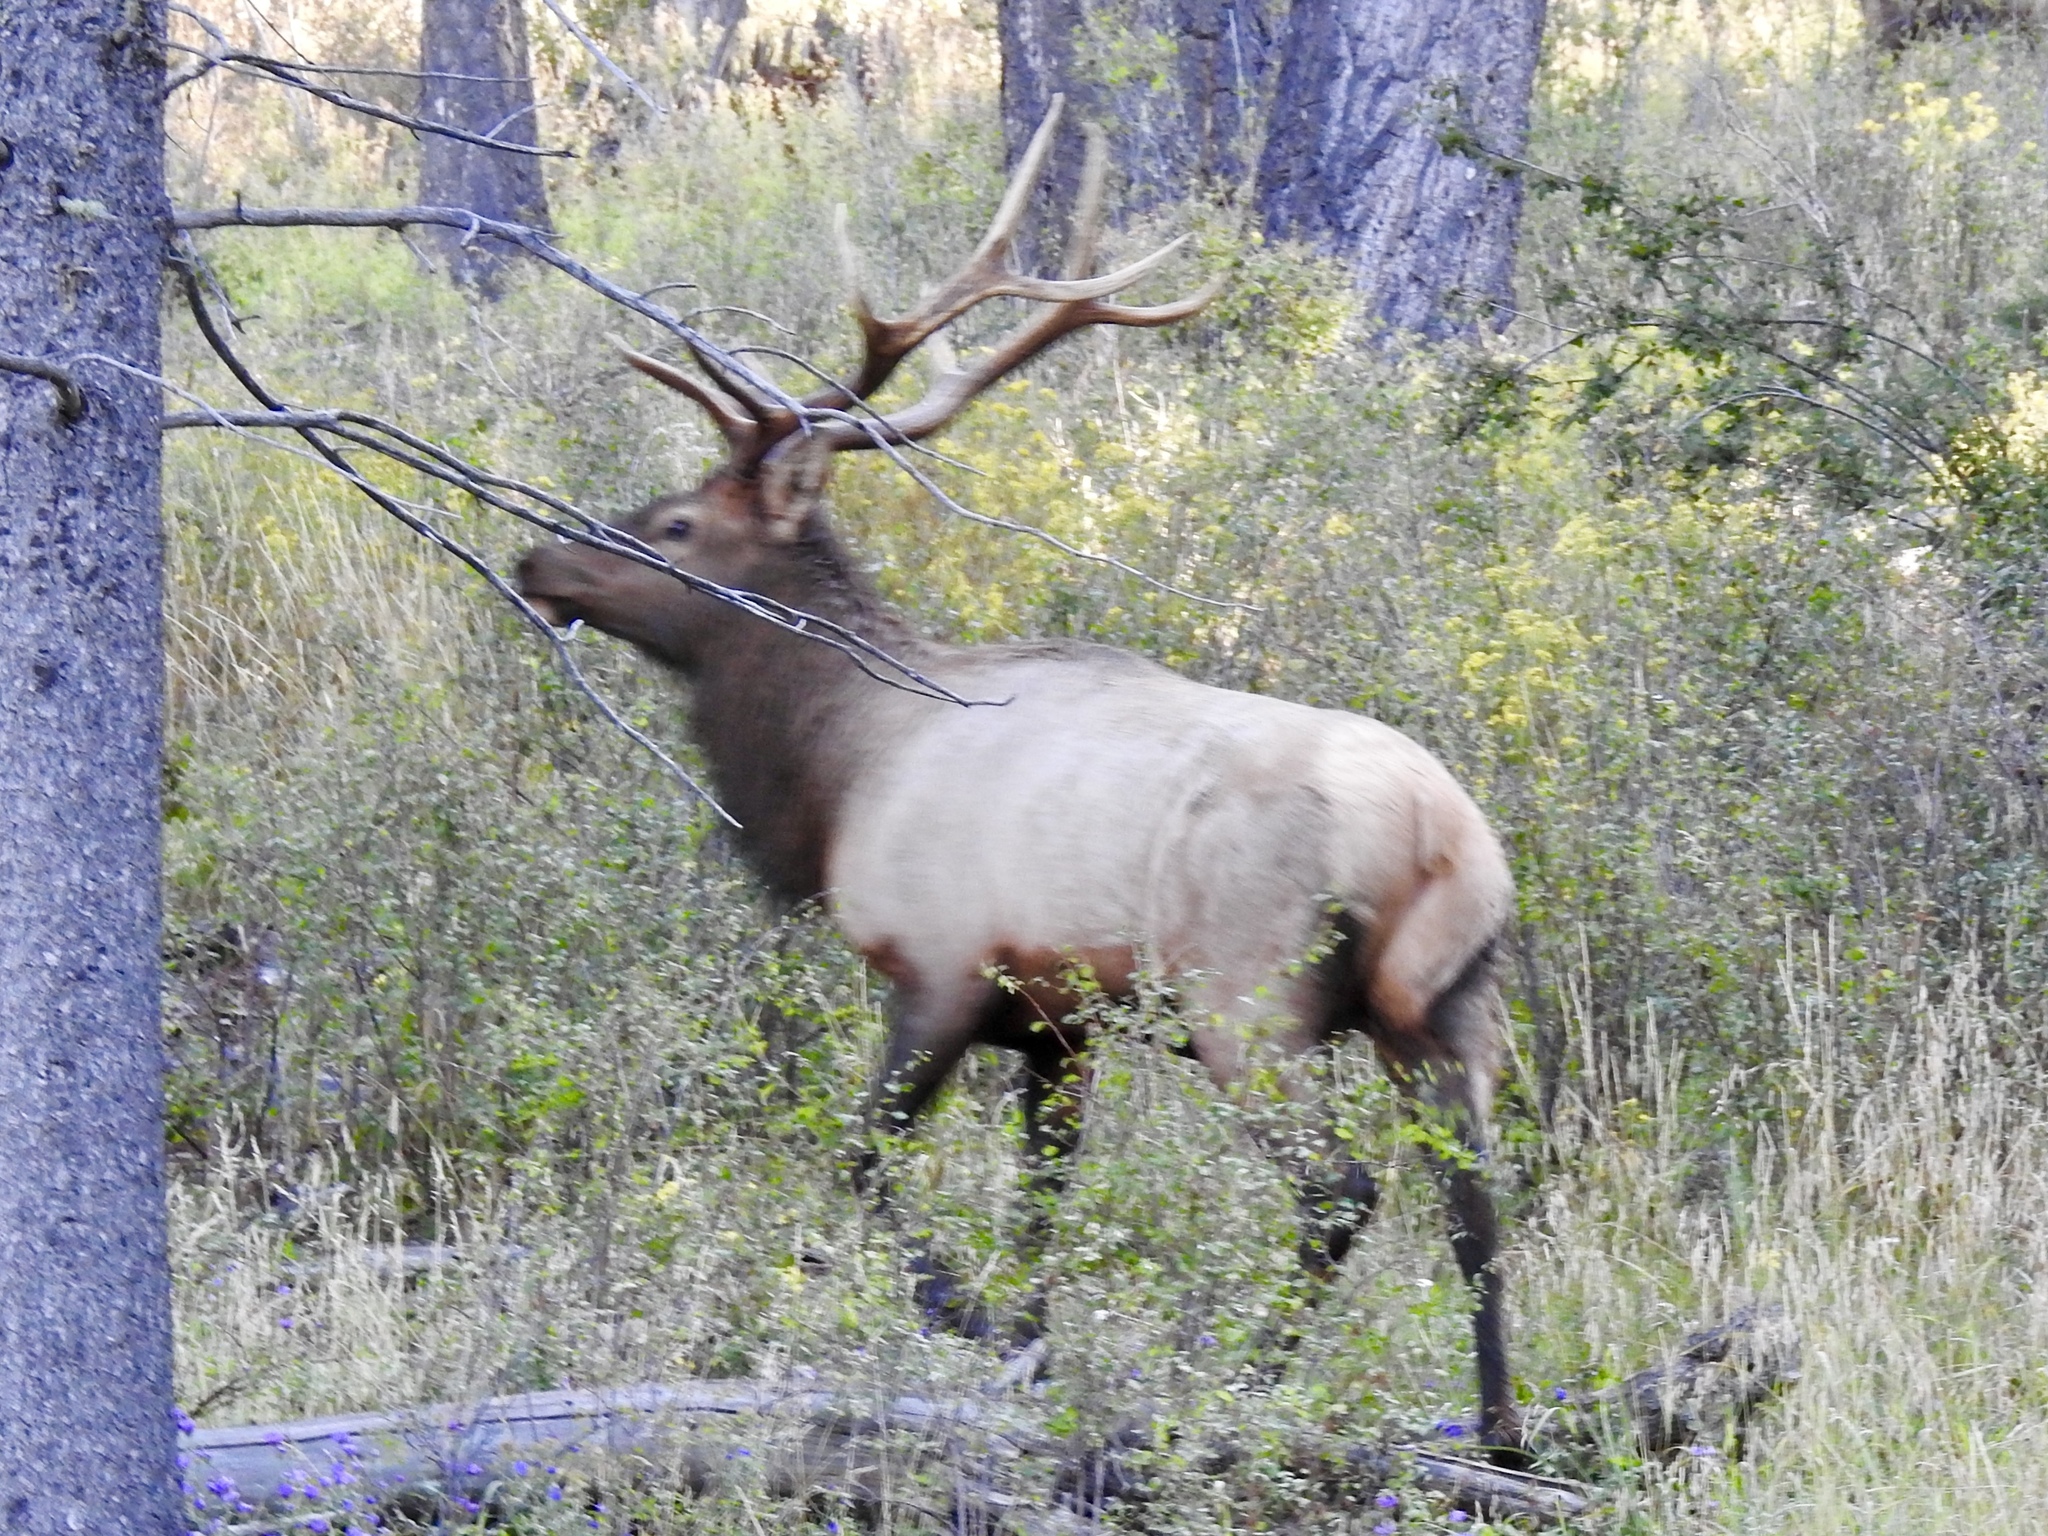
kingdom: Animalia
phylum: Chordata
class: Mammalia
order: Artiodactyla
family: Cervidae
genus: Cervus
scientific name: Cervus elaphus
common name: Red deer
